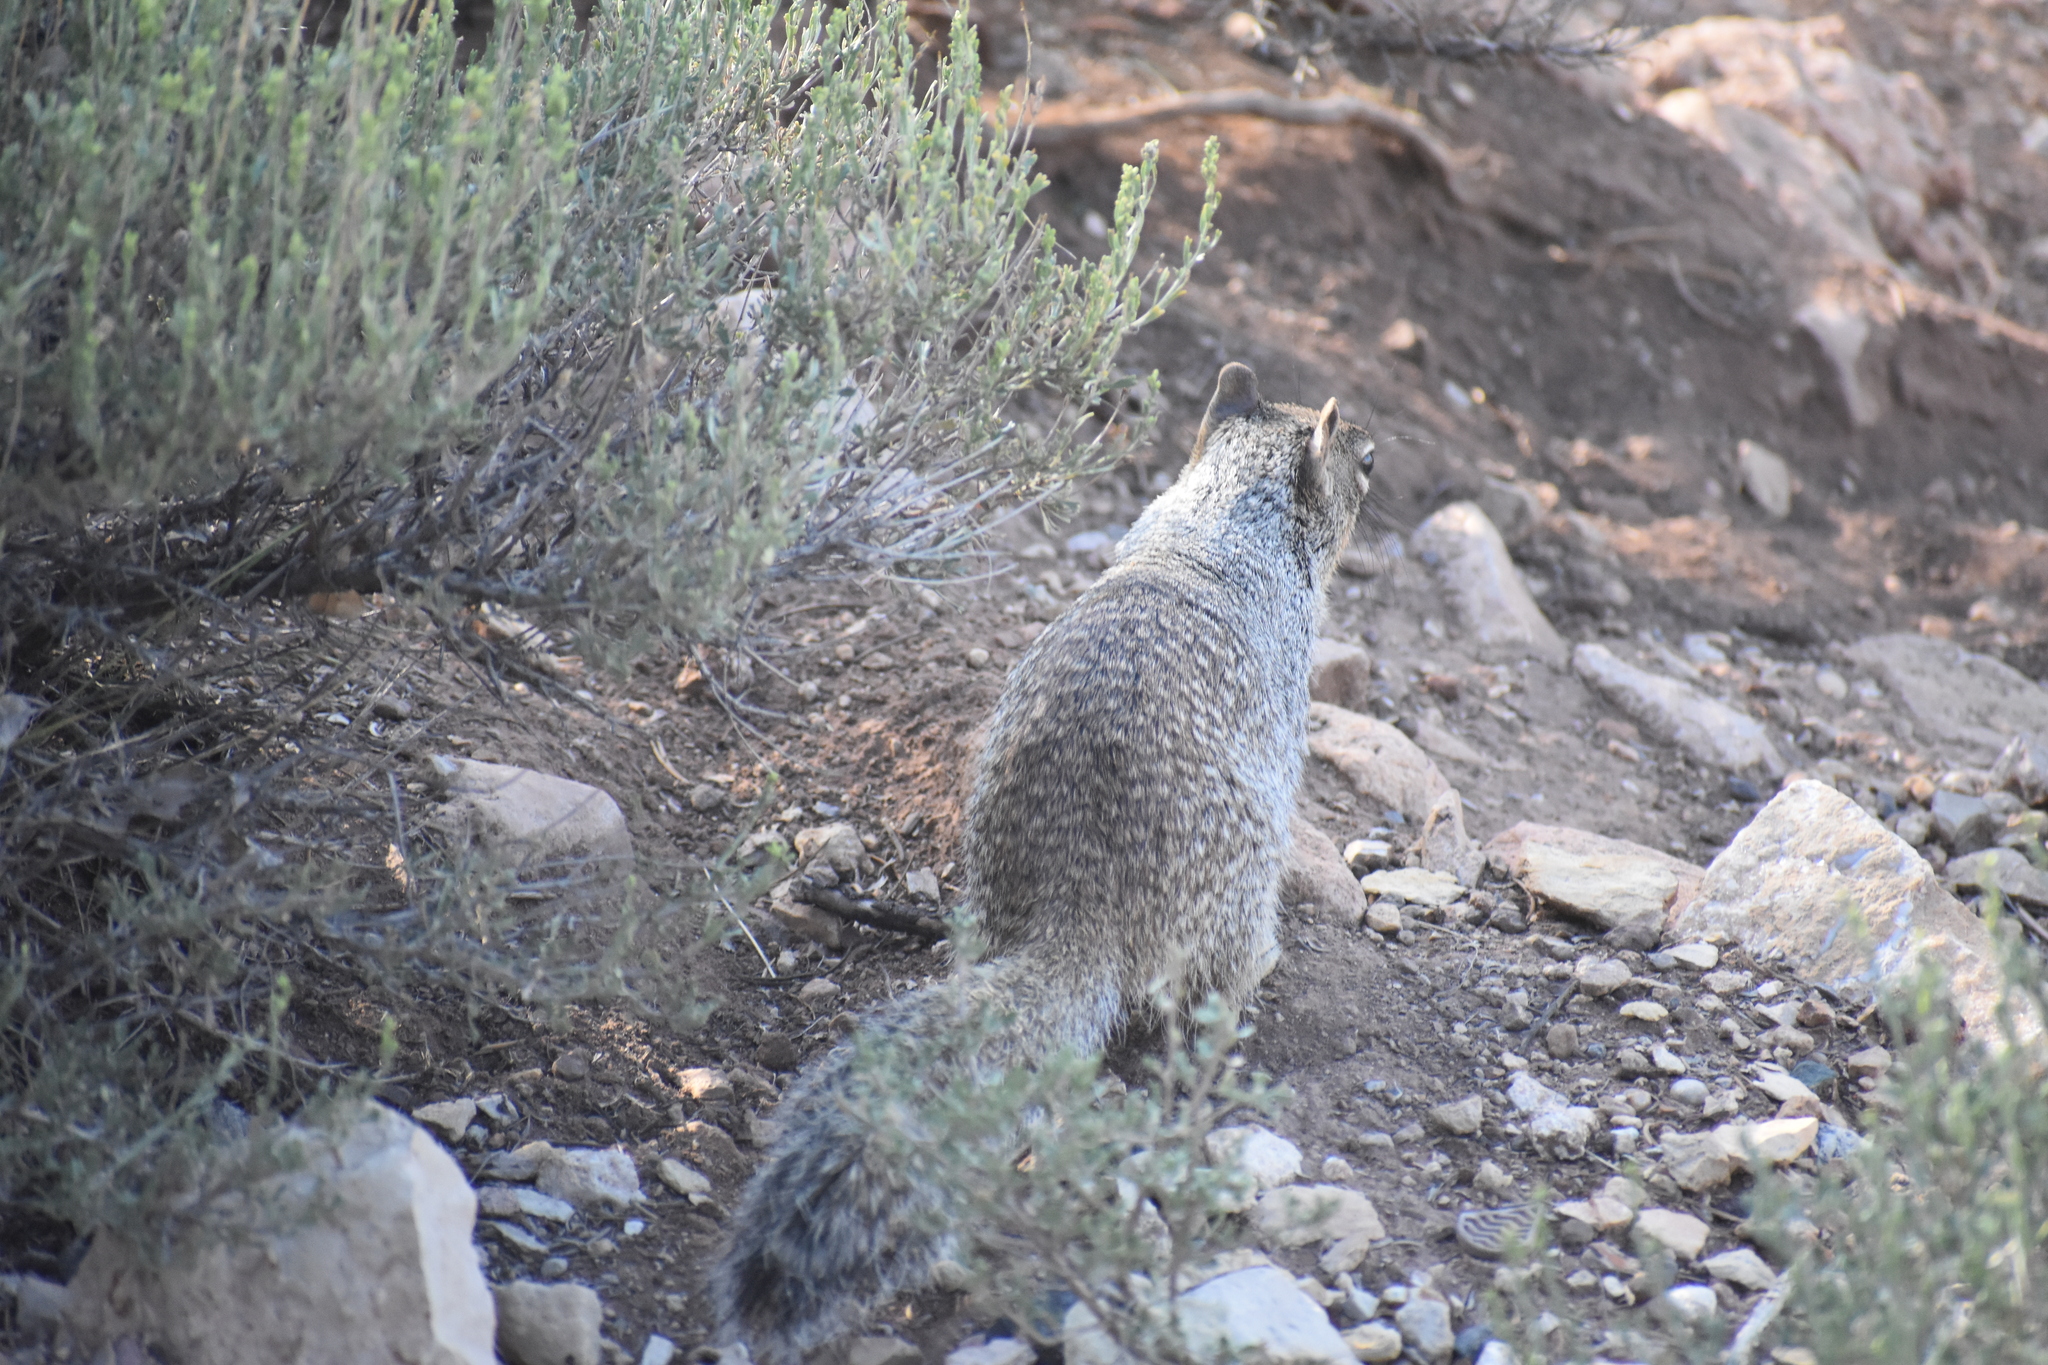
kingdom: Animalia
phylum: Chordata
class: Mammalia
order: Rodentia
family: Sciuridae
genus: Otospermophilus
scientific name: Otospermophilus variegatus
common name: Rock squirrel
